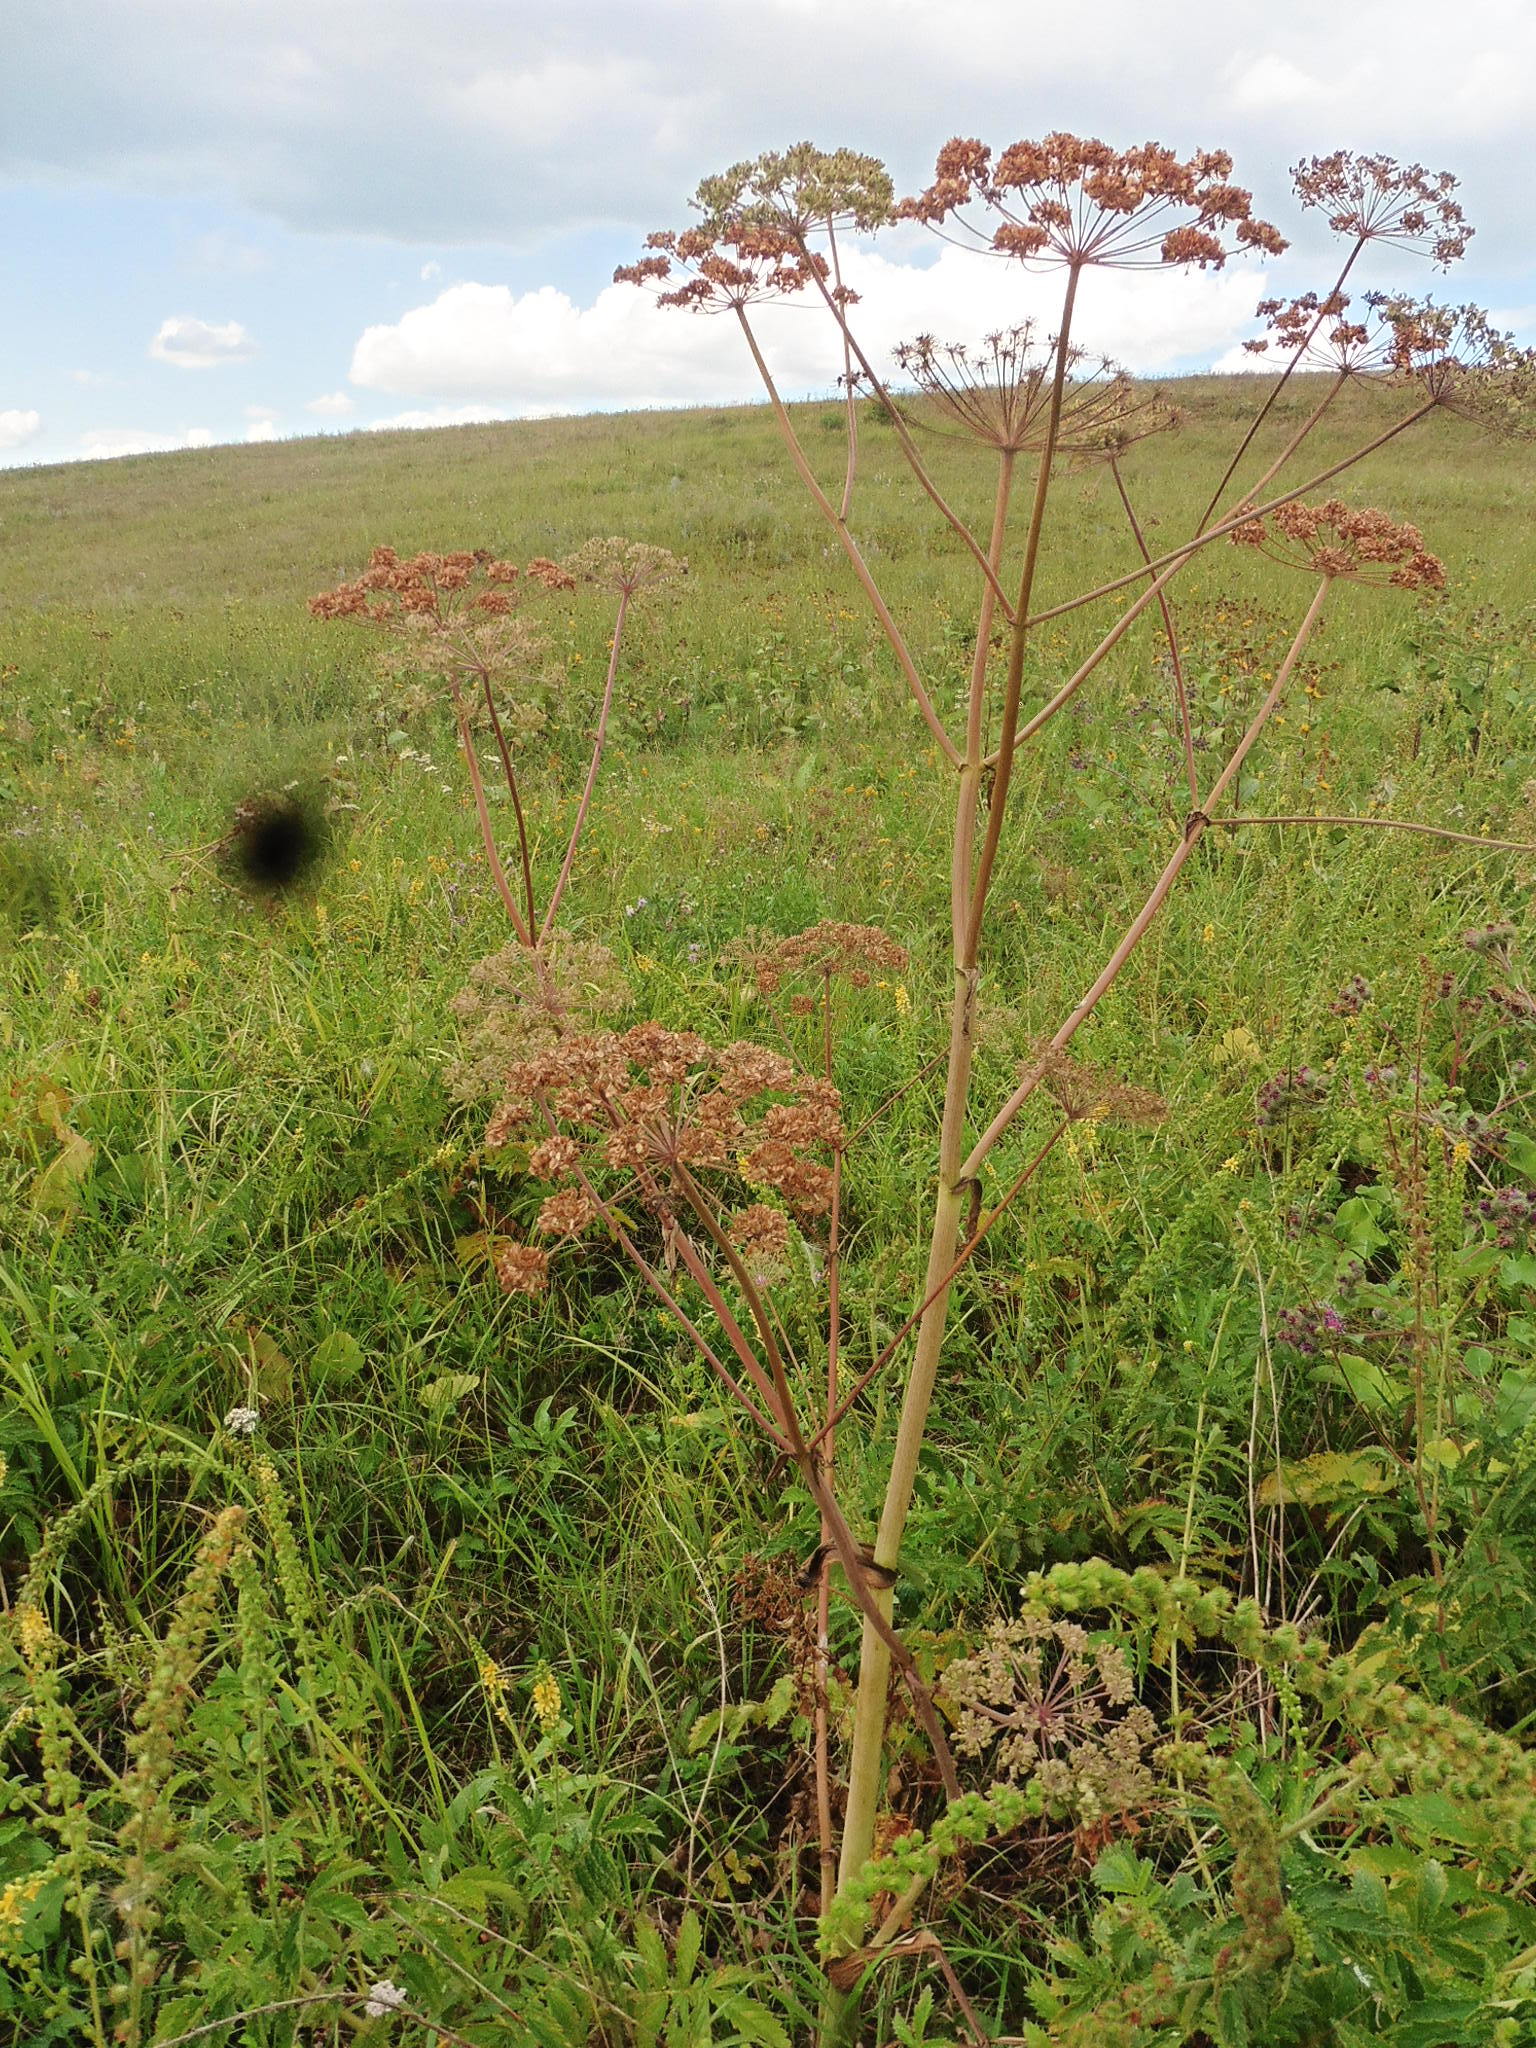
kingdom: Plantae
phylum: Tracheophyta
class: Magnoliopsida
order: Apiales
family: Apiaceae
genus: Angelica
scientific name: Angelica sylvestris
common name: Wild angelica
